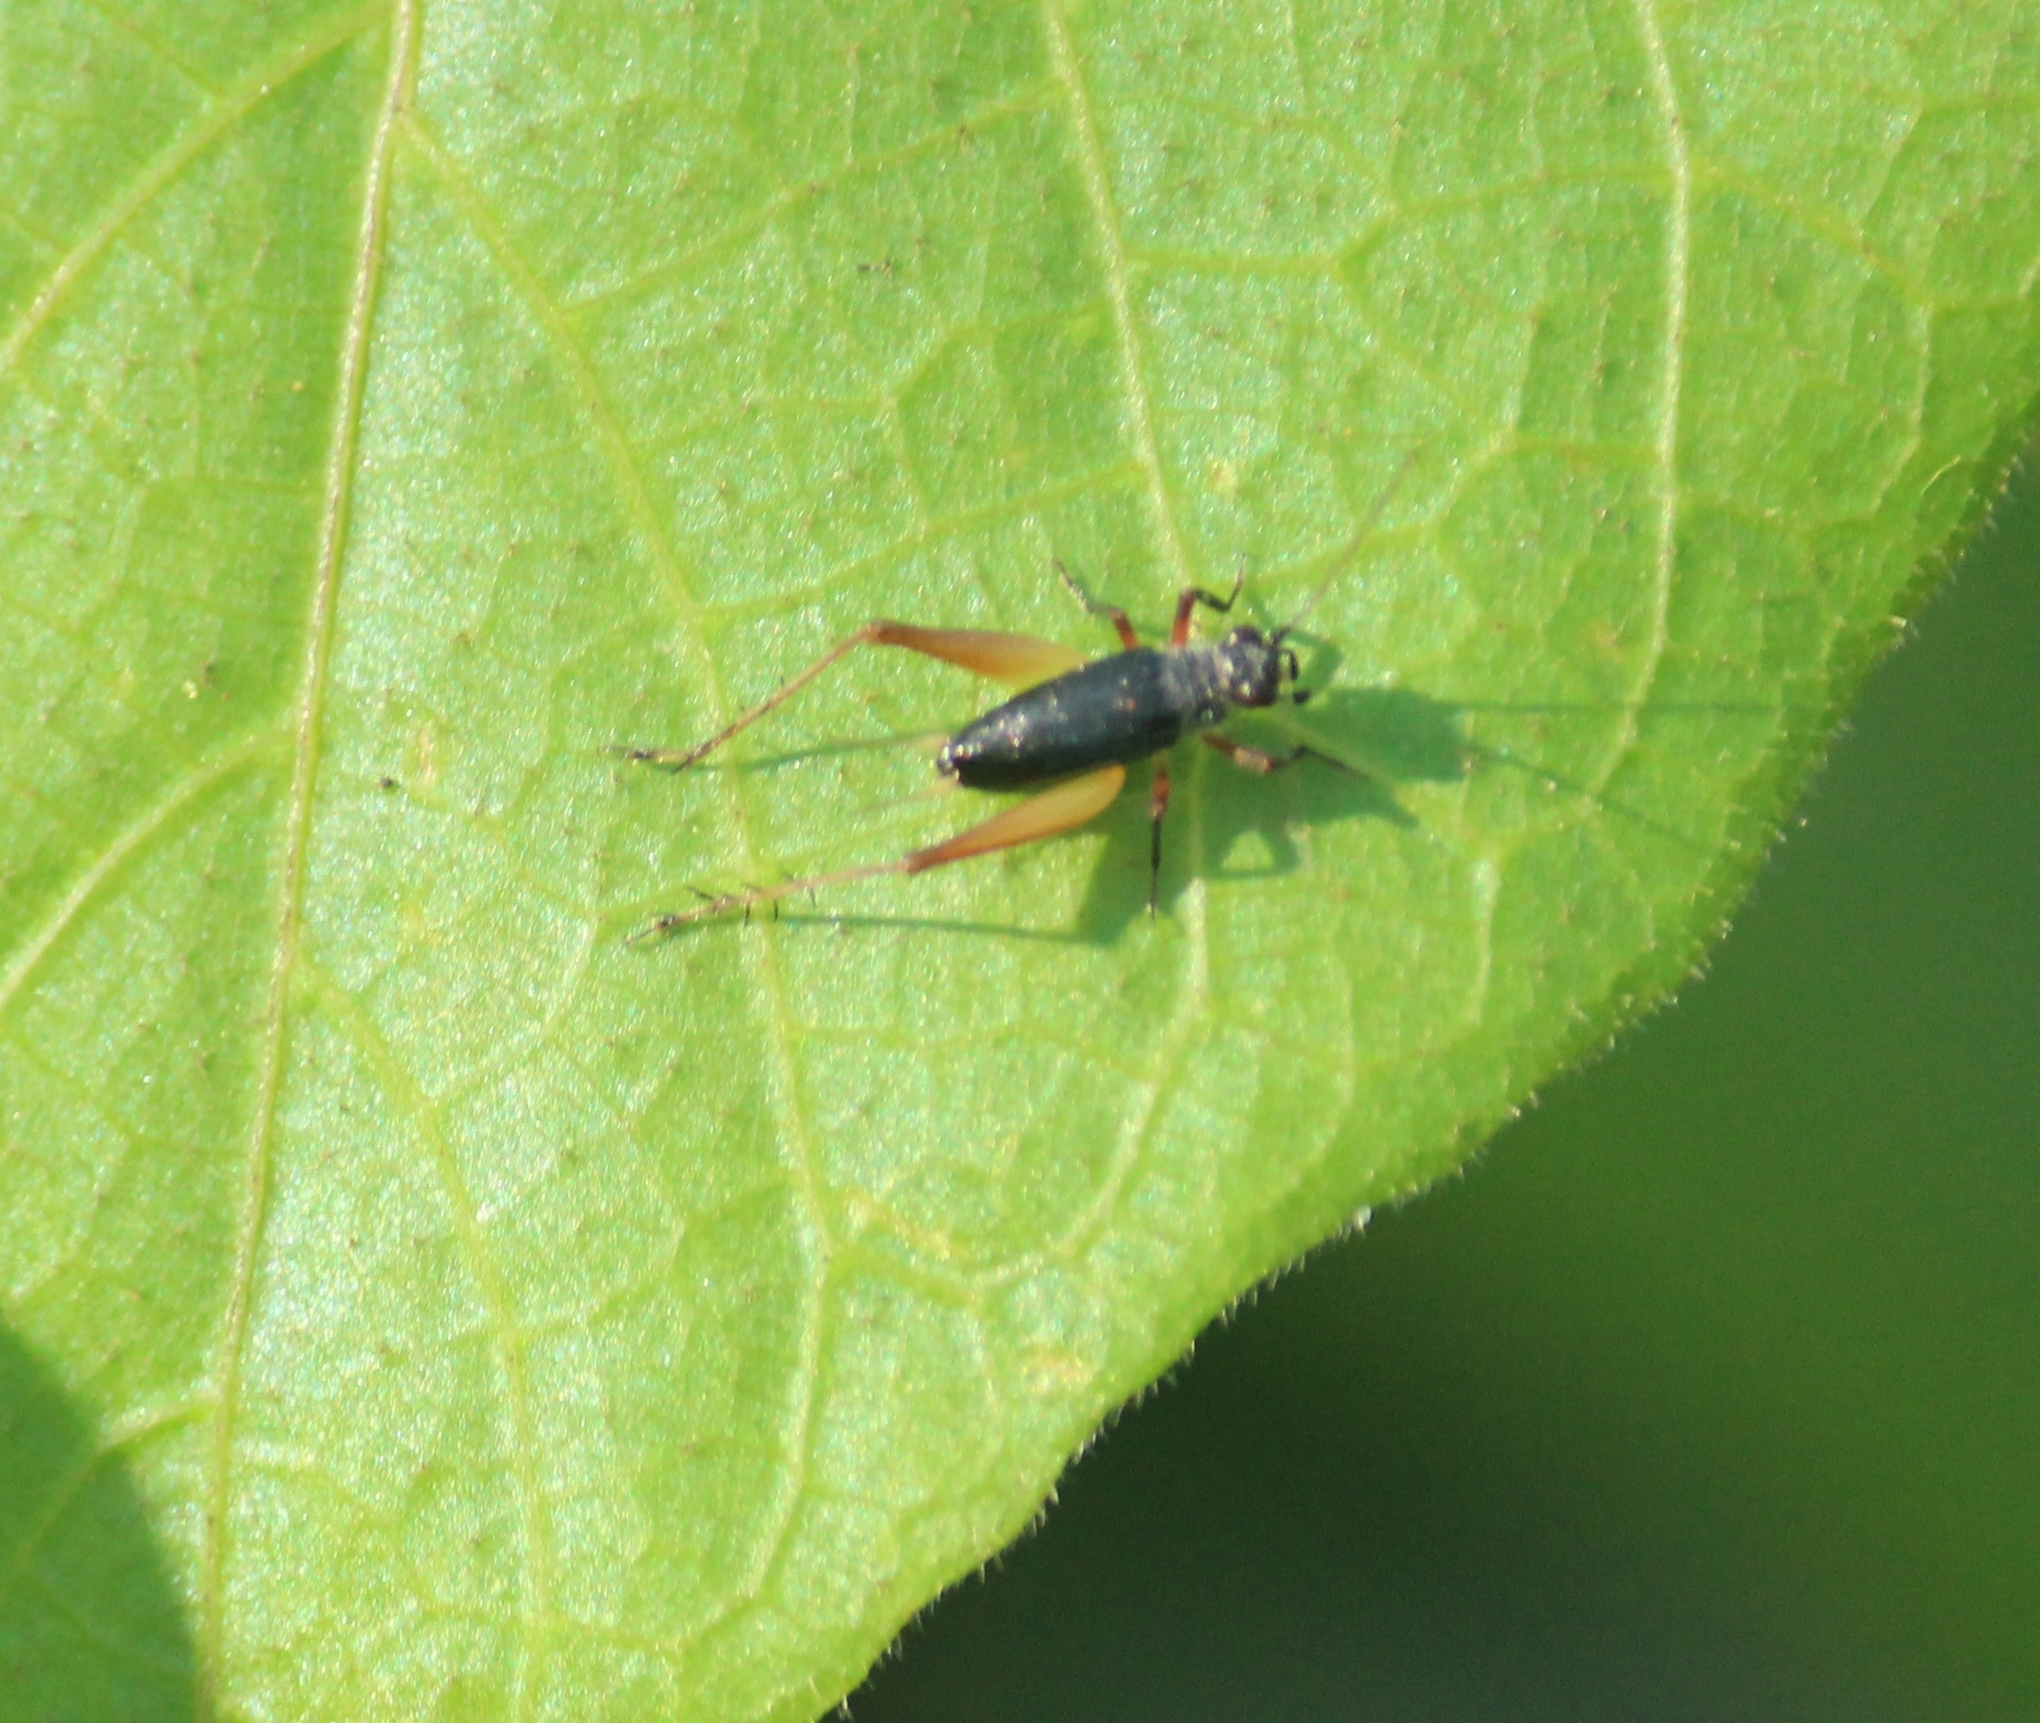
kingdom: Animalia
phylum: Arthropoda
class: Insecta
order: Orthoptera
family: Trigonidiidae
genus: Trigonidium
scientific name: Trigonidium cicindeloides
